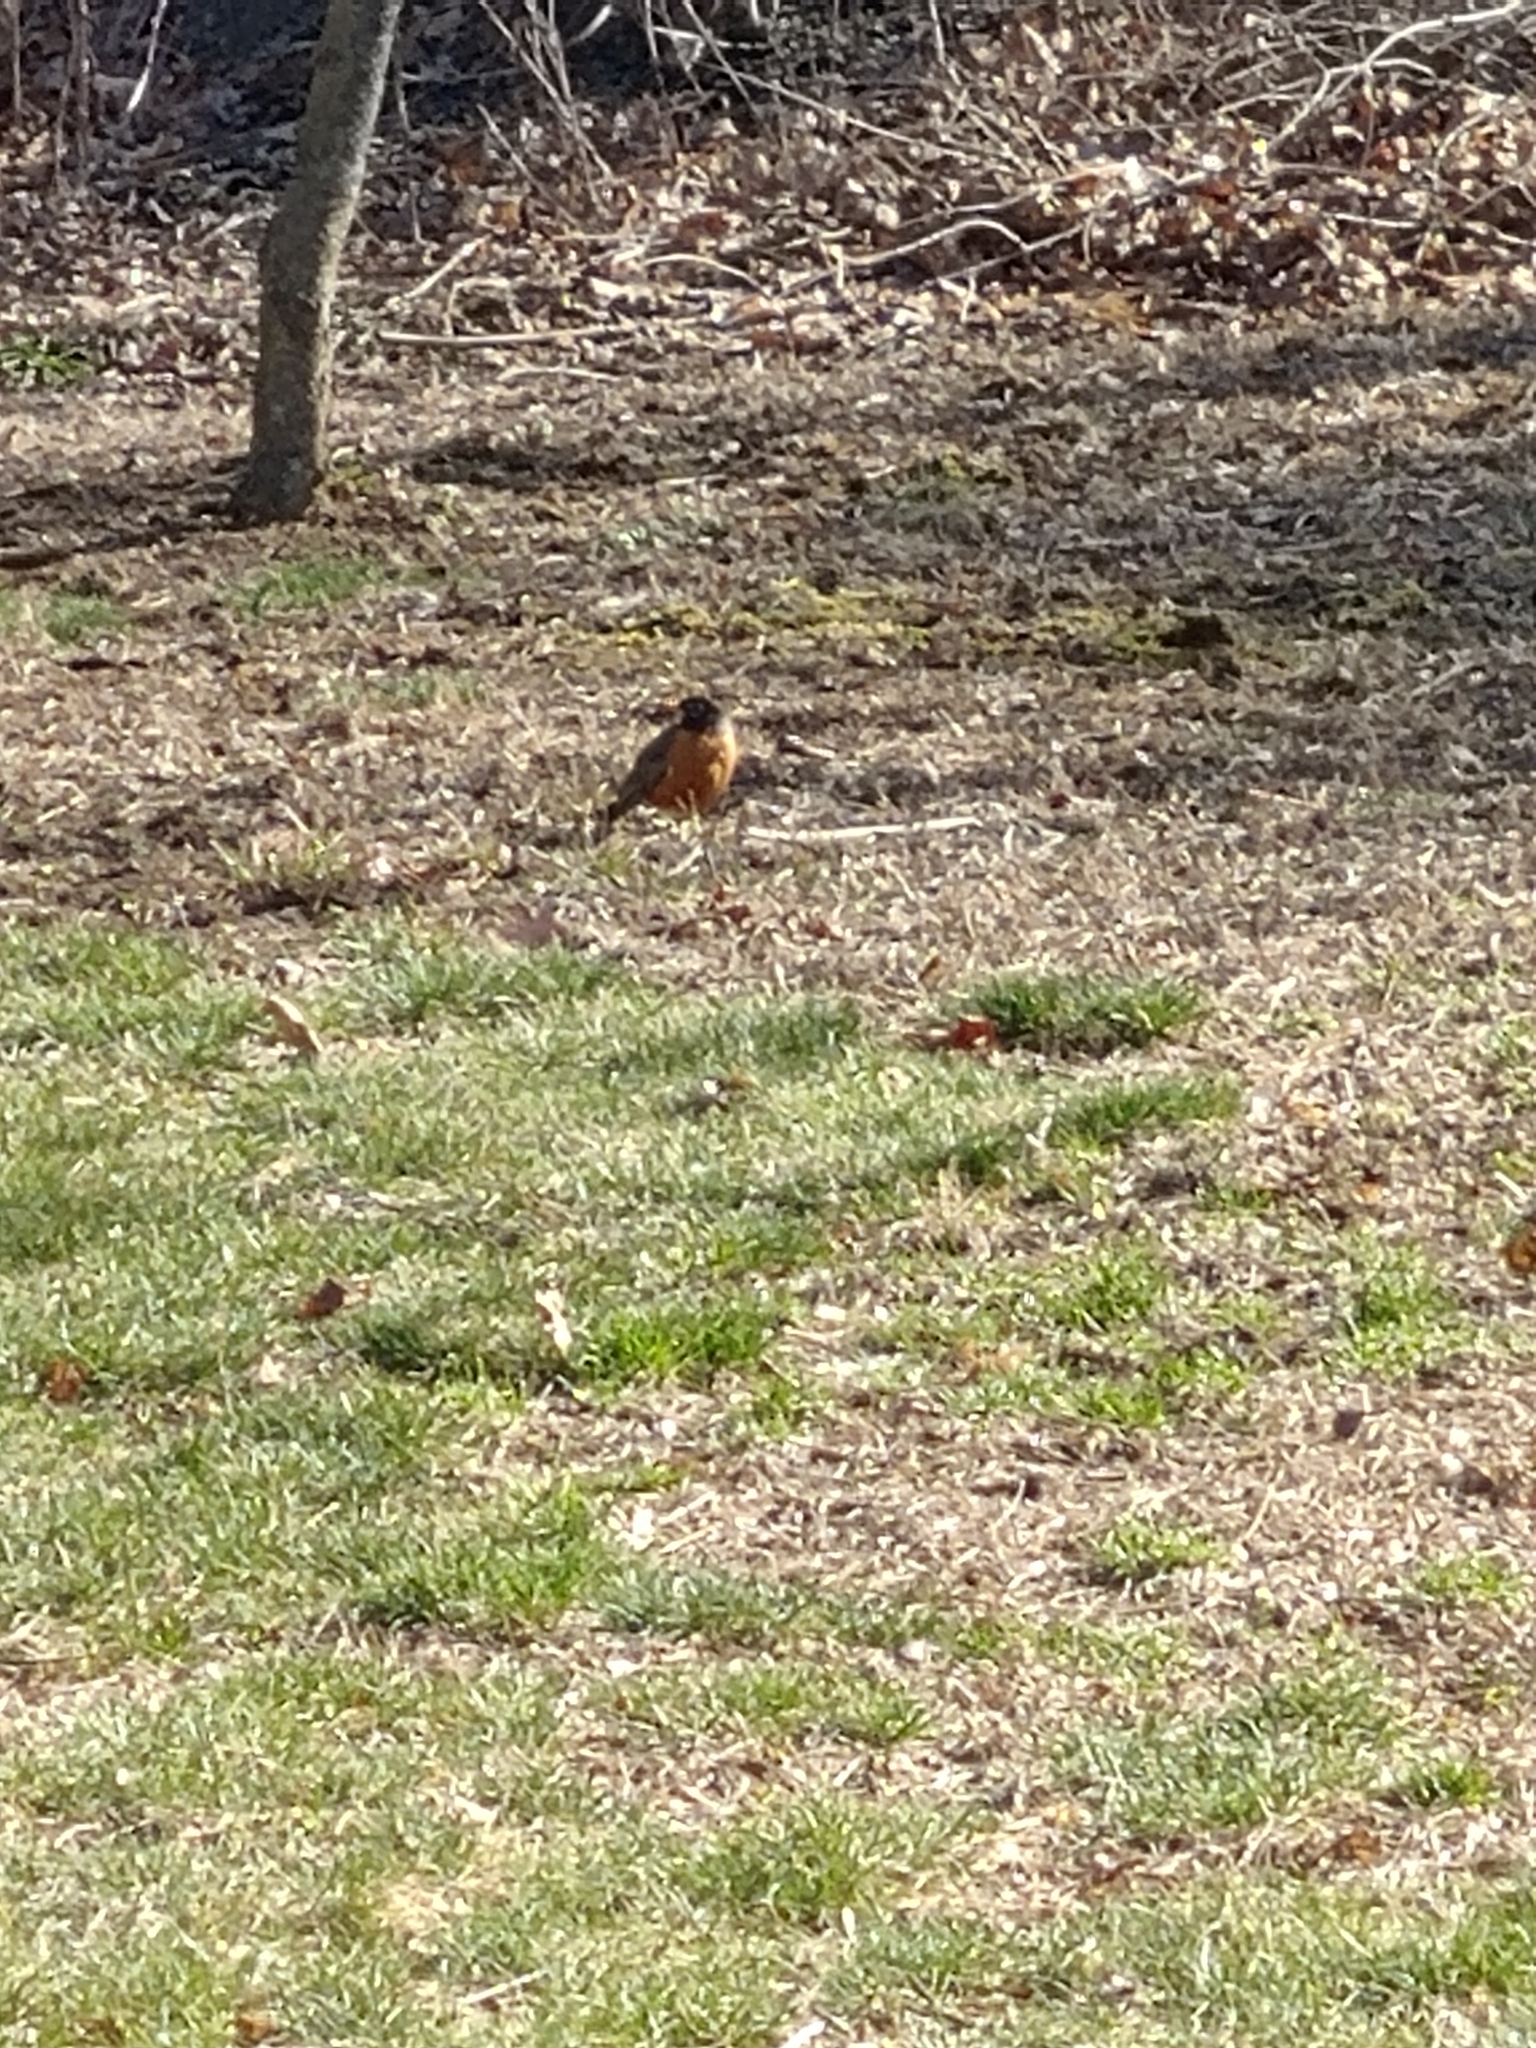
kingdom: Animalia
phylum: Chordata
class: Aves
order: Passeriformes
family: Turdidae
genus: Turdus
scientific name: Turdus migratorius
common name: American robin
